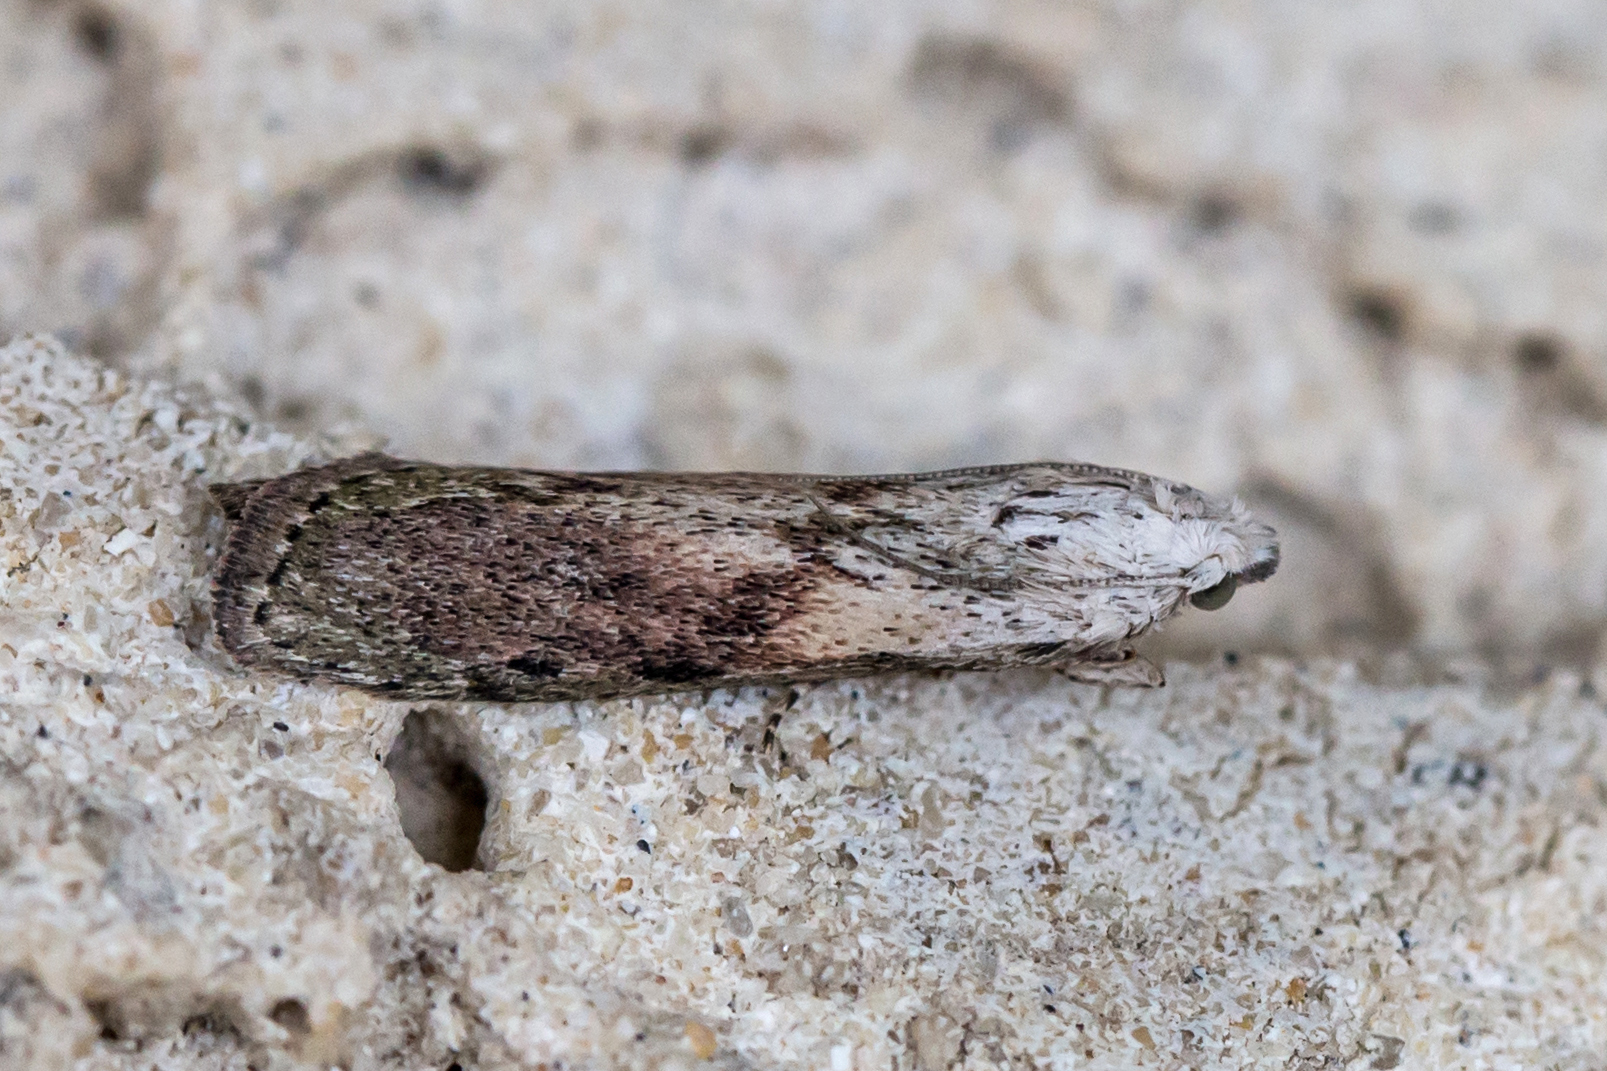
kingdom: Animalia
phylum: Arthropoda
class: Insecta
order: Lepidoptera
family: Pyralidae
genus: Aphomia
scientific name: Aphomia sociella
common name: Bee moth
